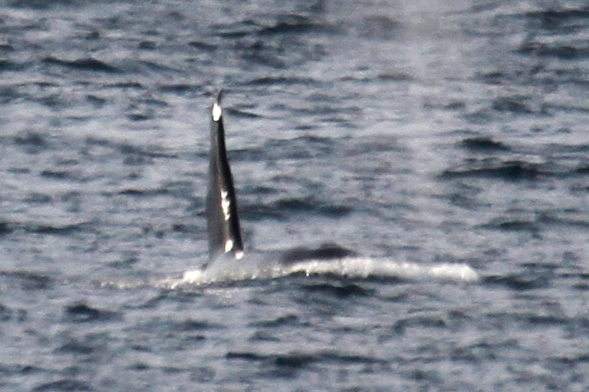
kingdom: Animalia
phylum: Chordata
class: Mammalia
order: Cetacea
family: Delphinidae
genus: Orcinus
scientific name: Orcinus orca
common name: Killer whale
